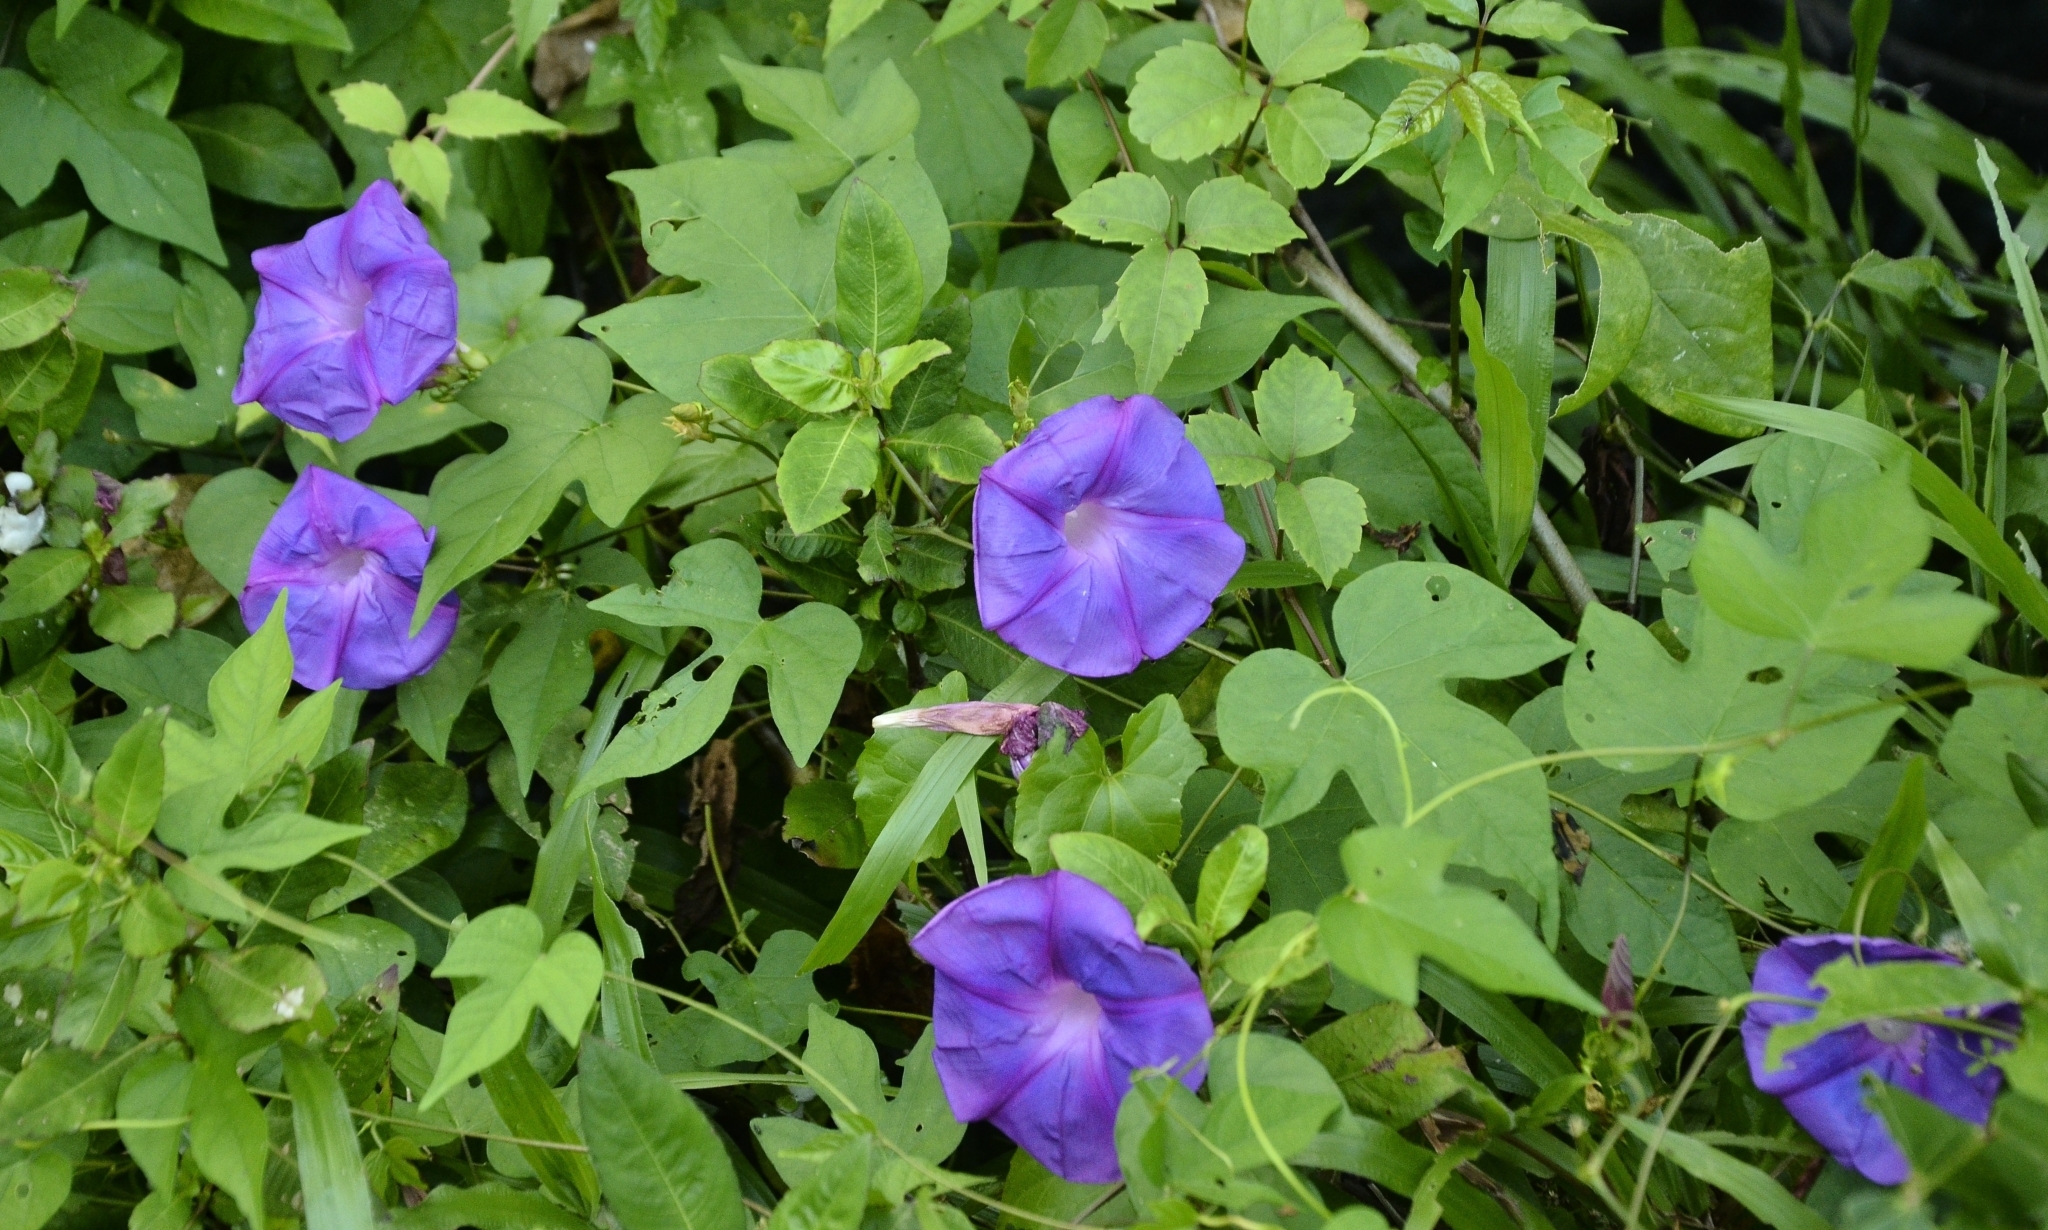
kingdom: Plantae
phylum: Tracheophyta
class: Magnoliopsida
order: Solanales
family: Convolvulaceae
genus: Ipomoea
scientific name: Ipomoea indica
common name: Blue dawnflower
